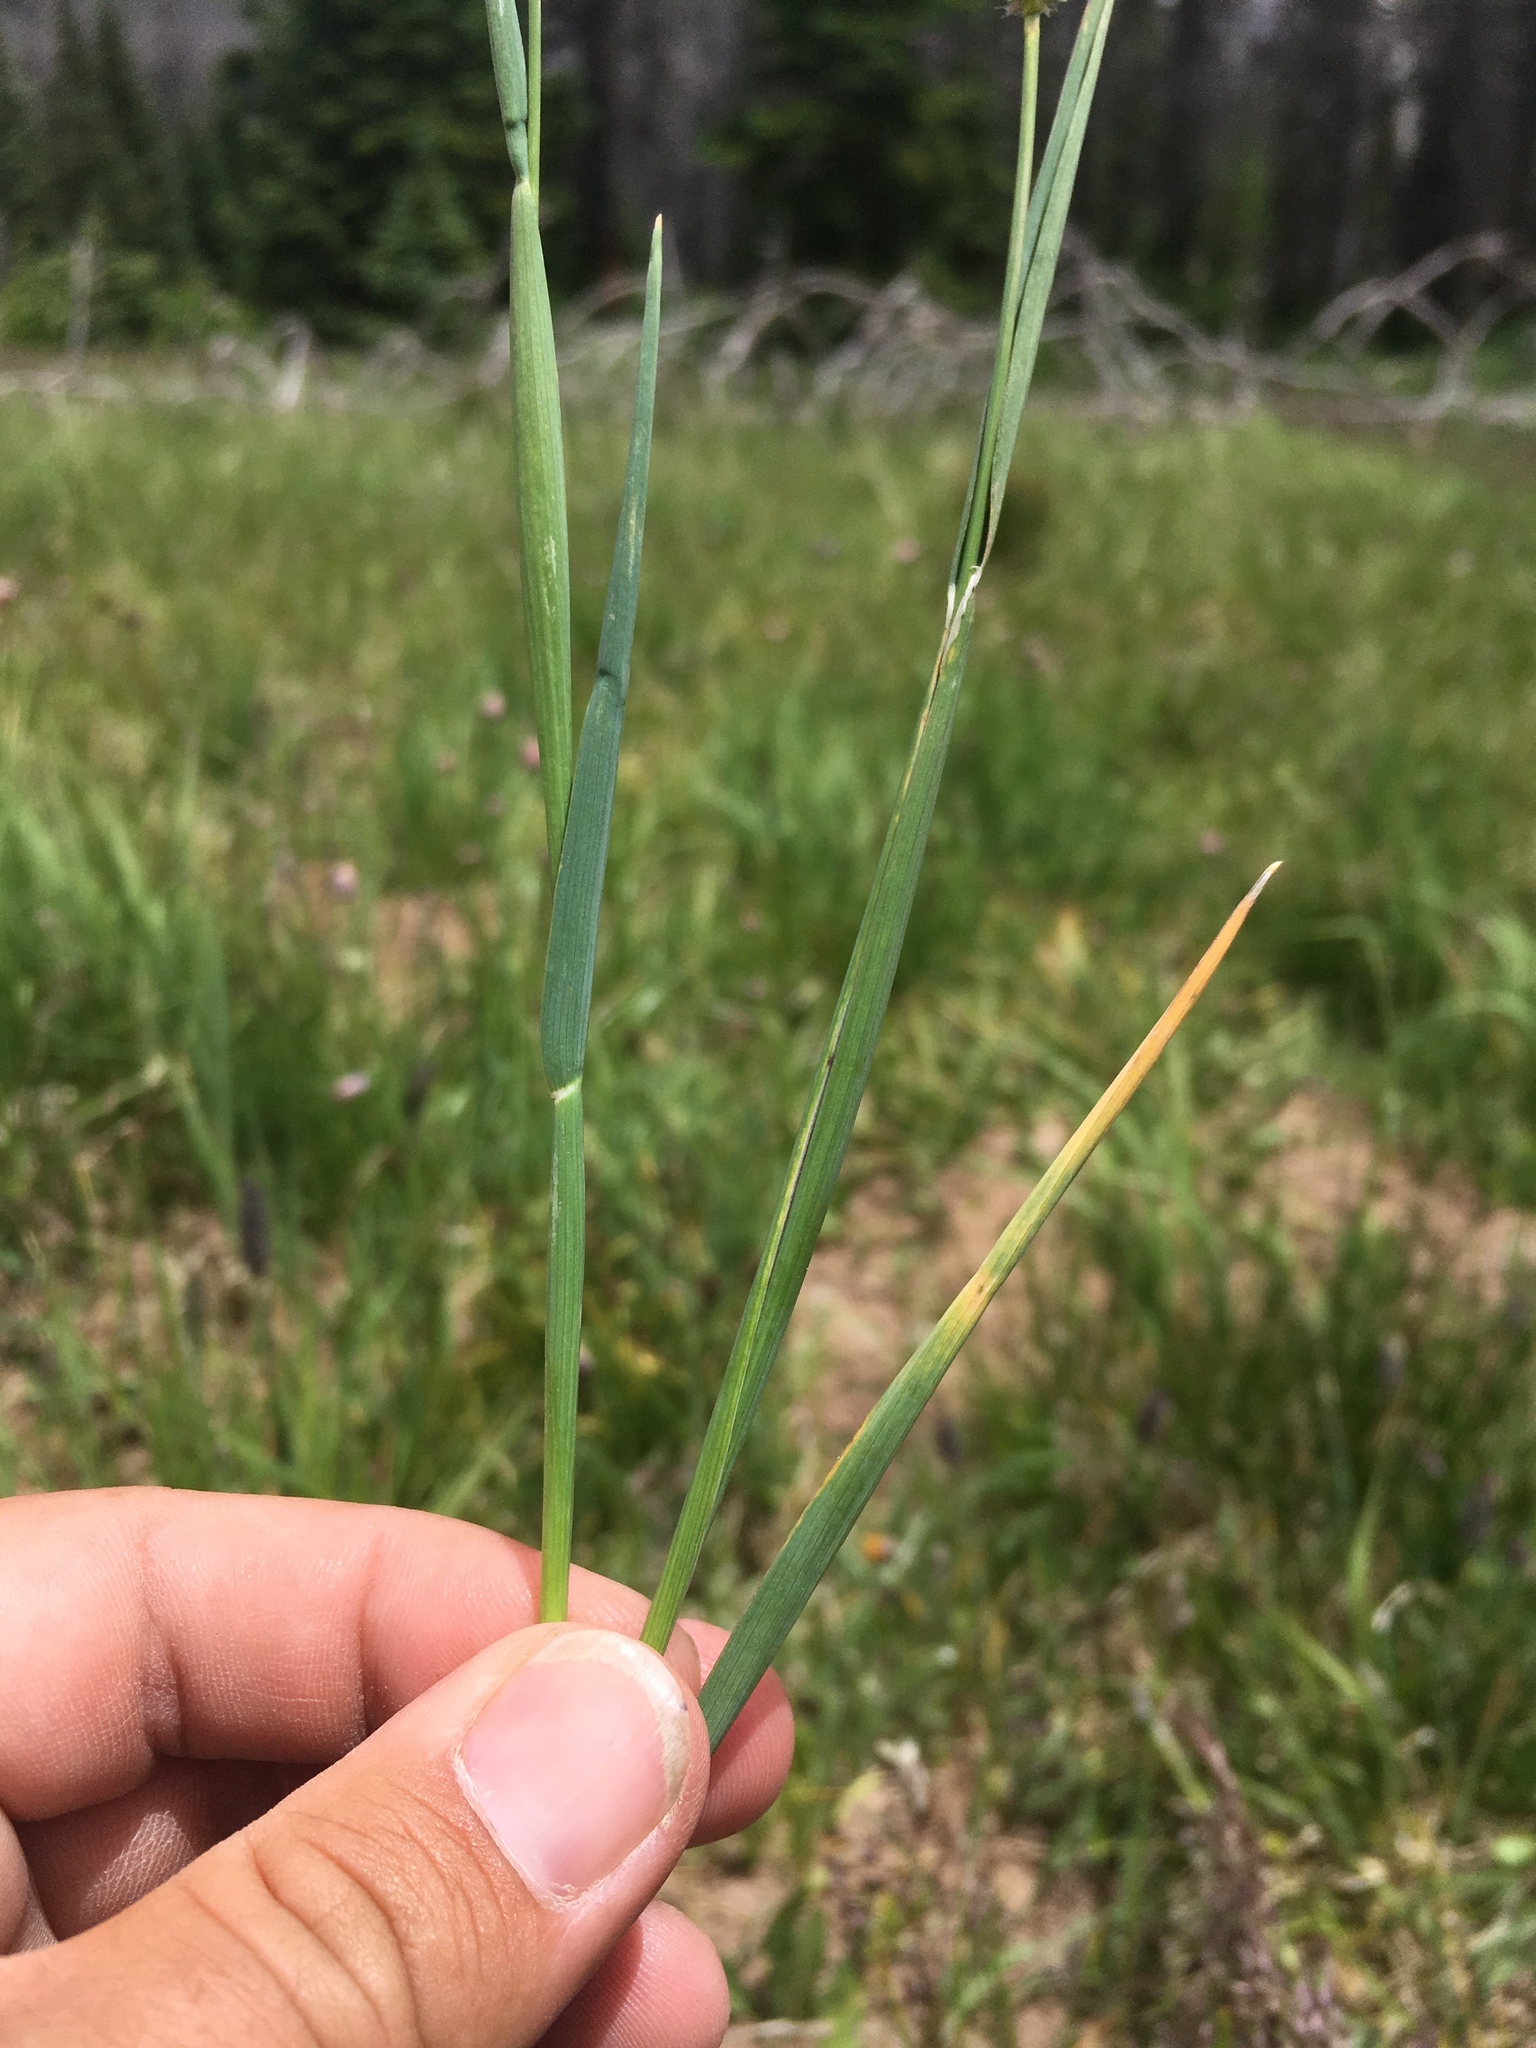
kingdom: Plantae
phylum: Tracheophyta
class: Liliopsida
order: Poales
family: Poaceae
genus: Phleum
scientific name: Phleum alpinum
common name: Alpine cat's-tail
